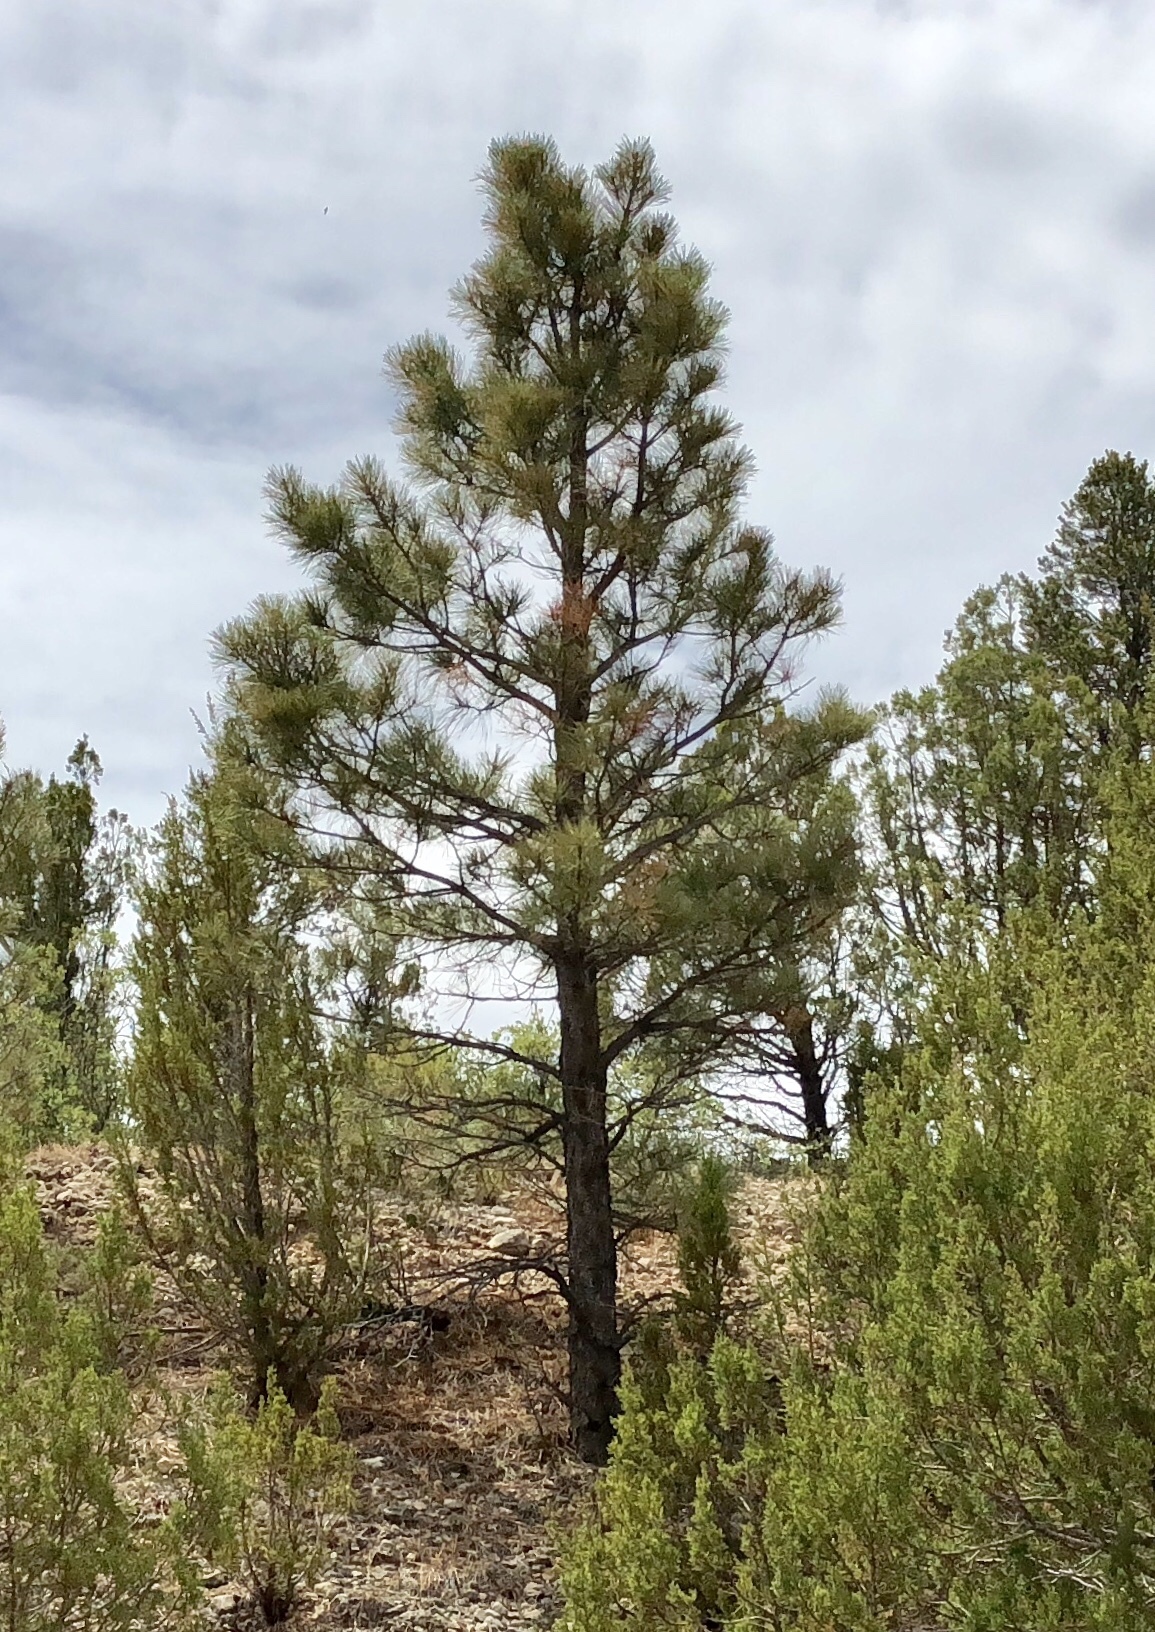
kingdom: Plantae
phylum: Tracheophyta
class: Pinopsida
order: Pinales
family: Pinaceae
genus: Pinus
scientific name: Pinus ponderosa
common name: Western yellow-pine
